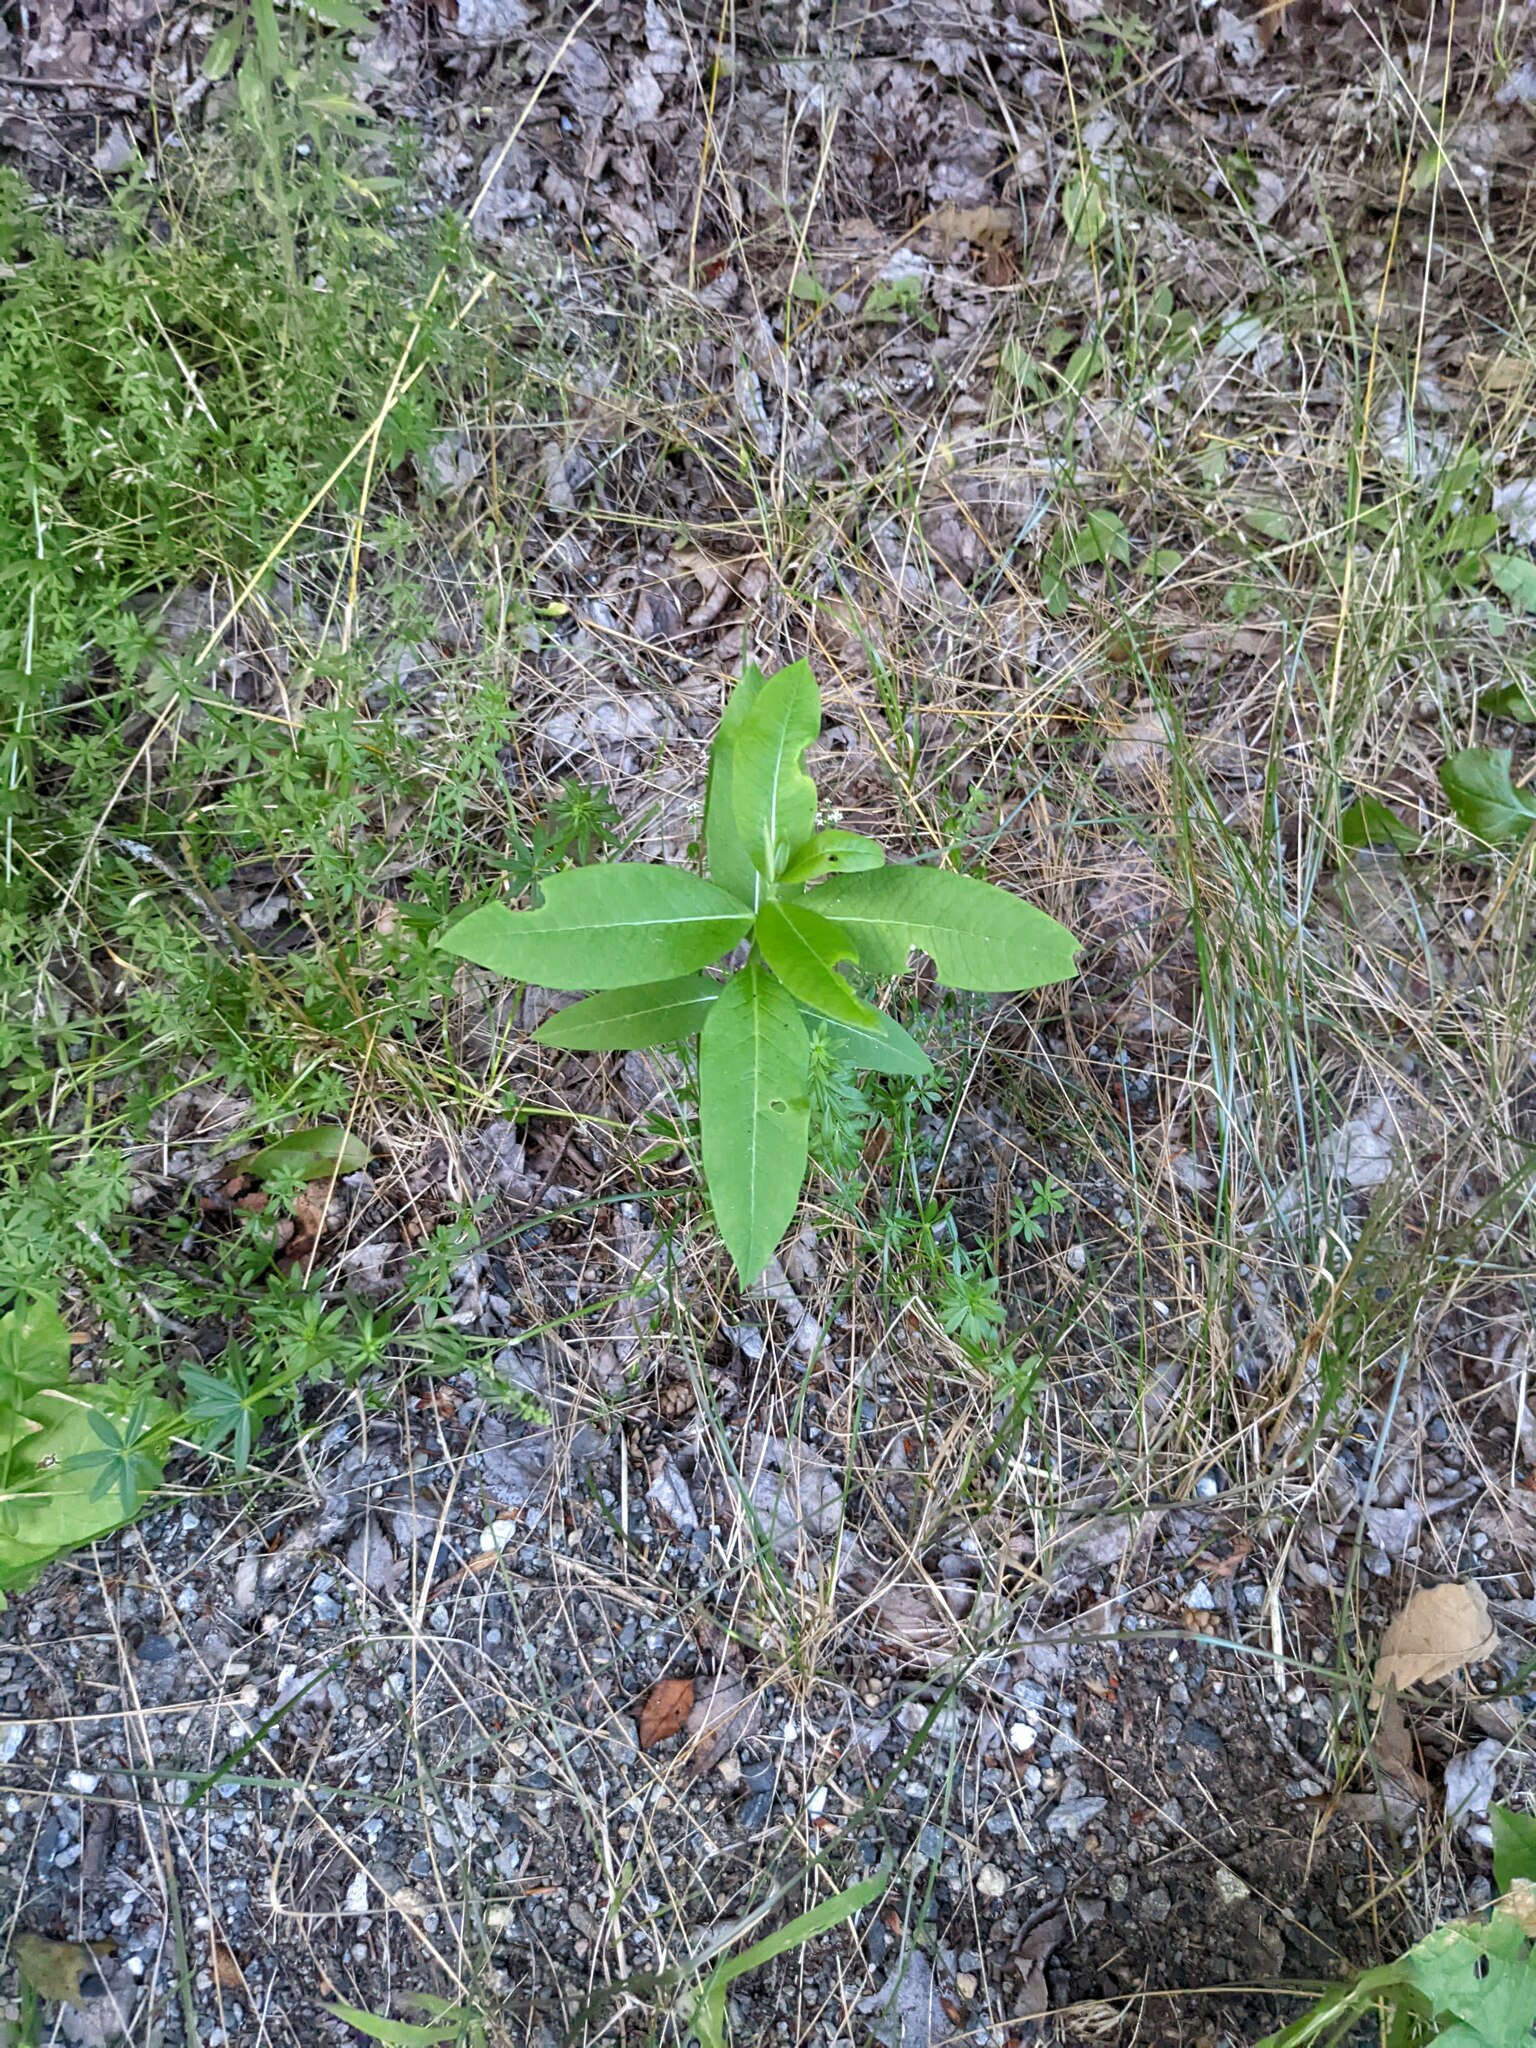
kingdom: Plantae
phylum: Tracheophyta
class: Magnoliopsida
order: Gentianales
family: Apocynaceae
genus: Asclepias
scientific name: Asclepias syriaca
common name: Common milkweed
